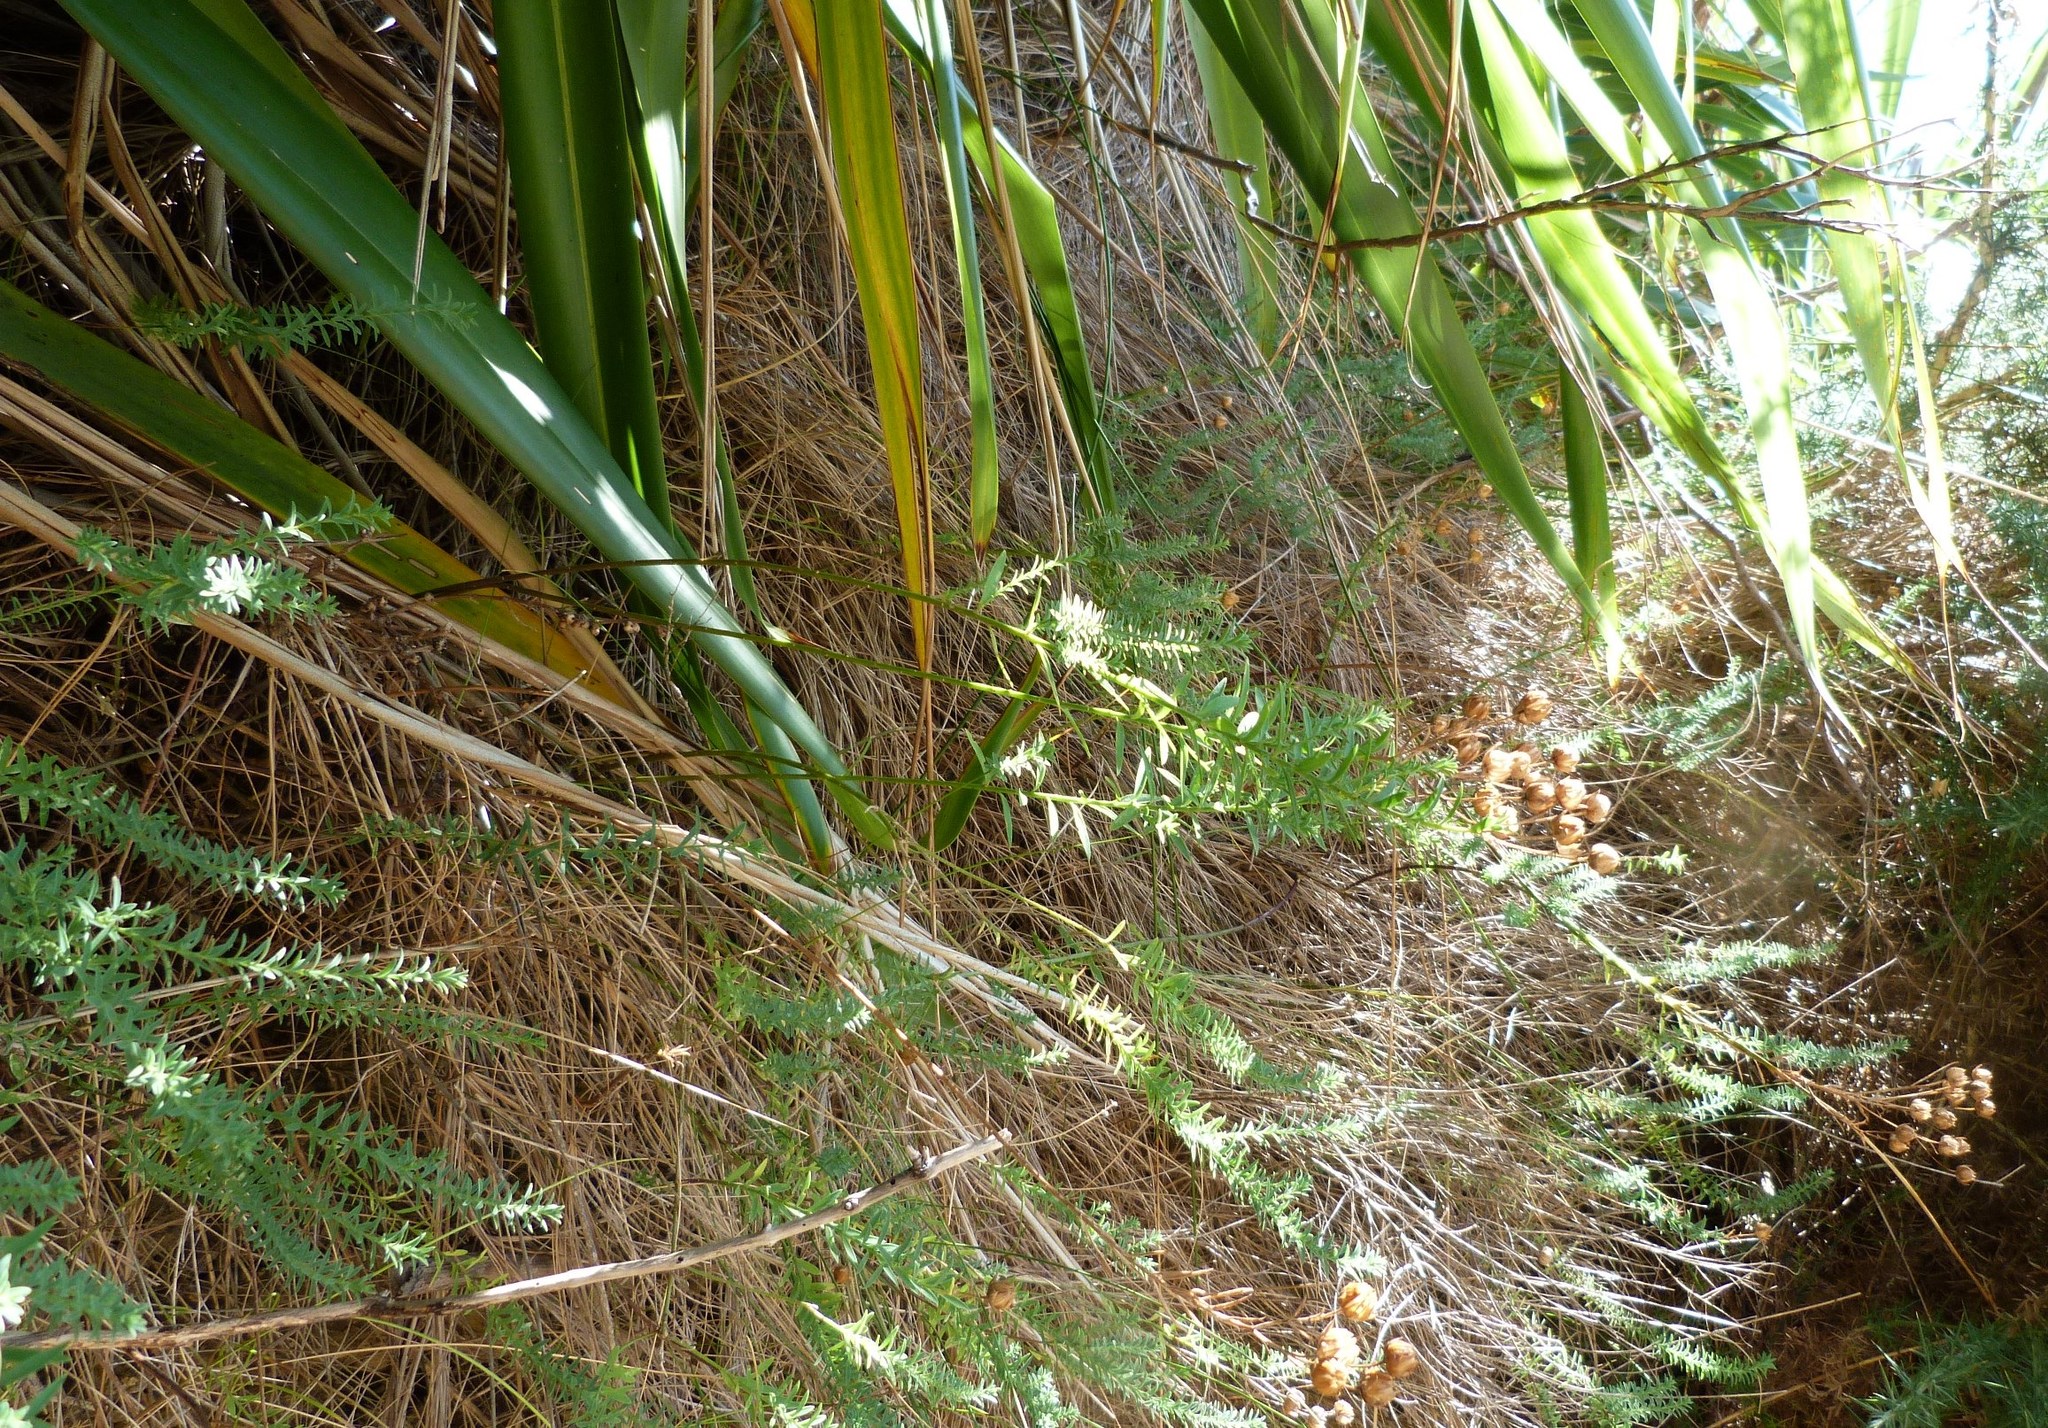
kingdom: Plantae
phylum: Tracheophyta
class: Magnoliopsida
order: Malpighiales
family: Linaceae
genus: Linum
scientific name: Linum monogynum
